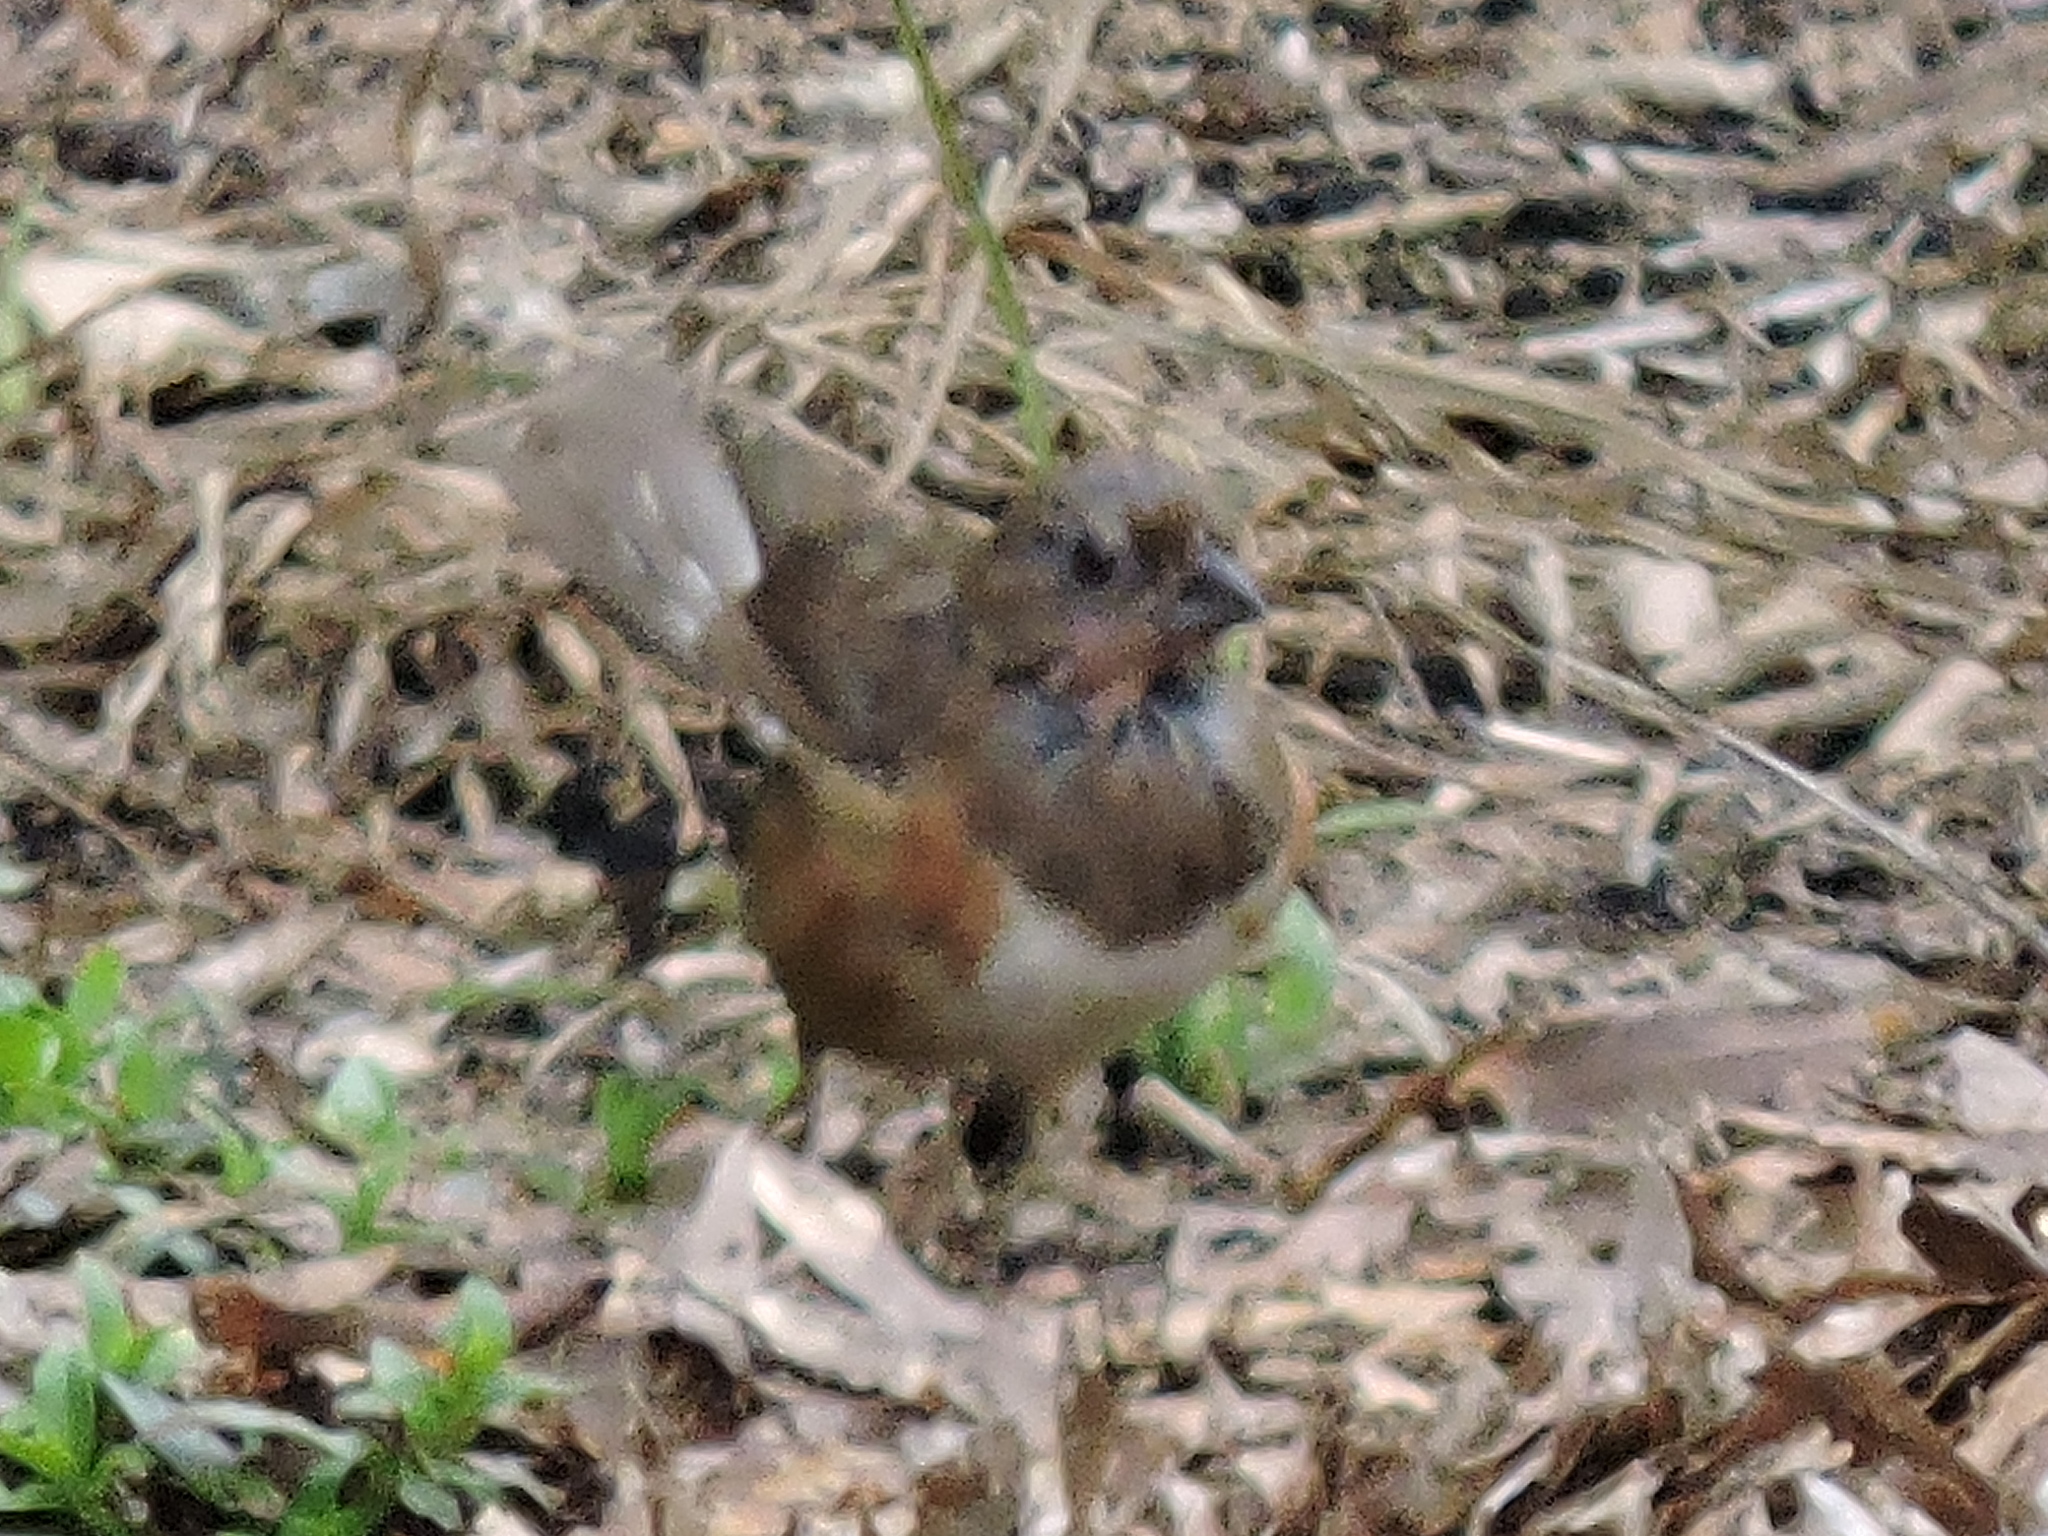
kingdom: Animalia
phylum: Chordata
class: Aves
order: Passeriformes
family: Passerellidae
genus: Pipilo
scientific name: Pipilo erythrophthalmus
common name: Eastern towhee
